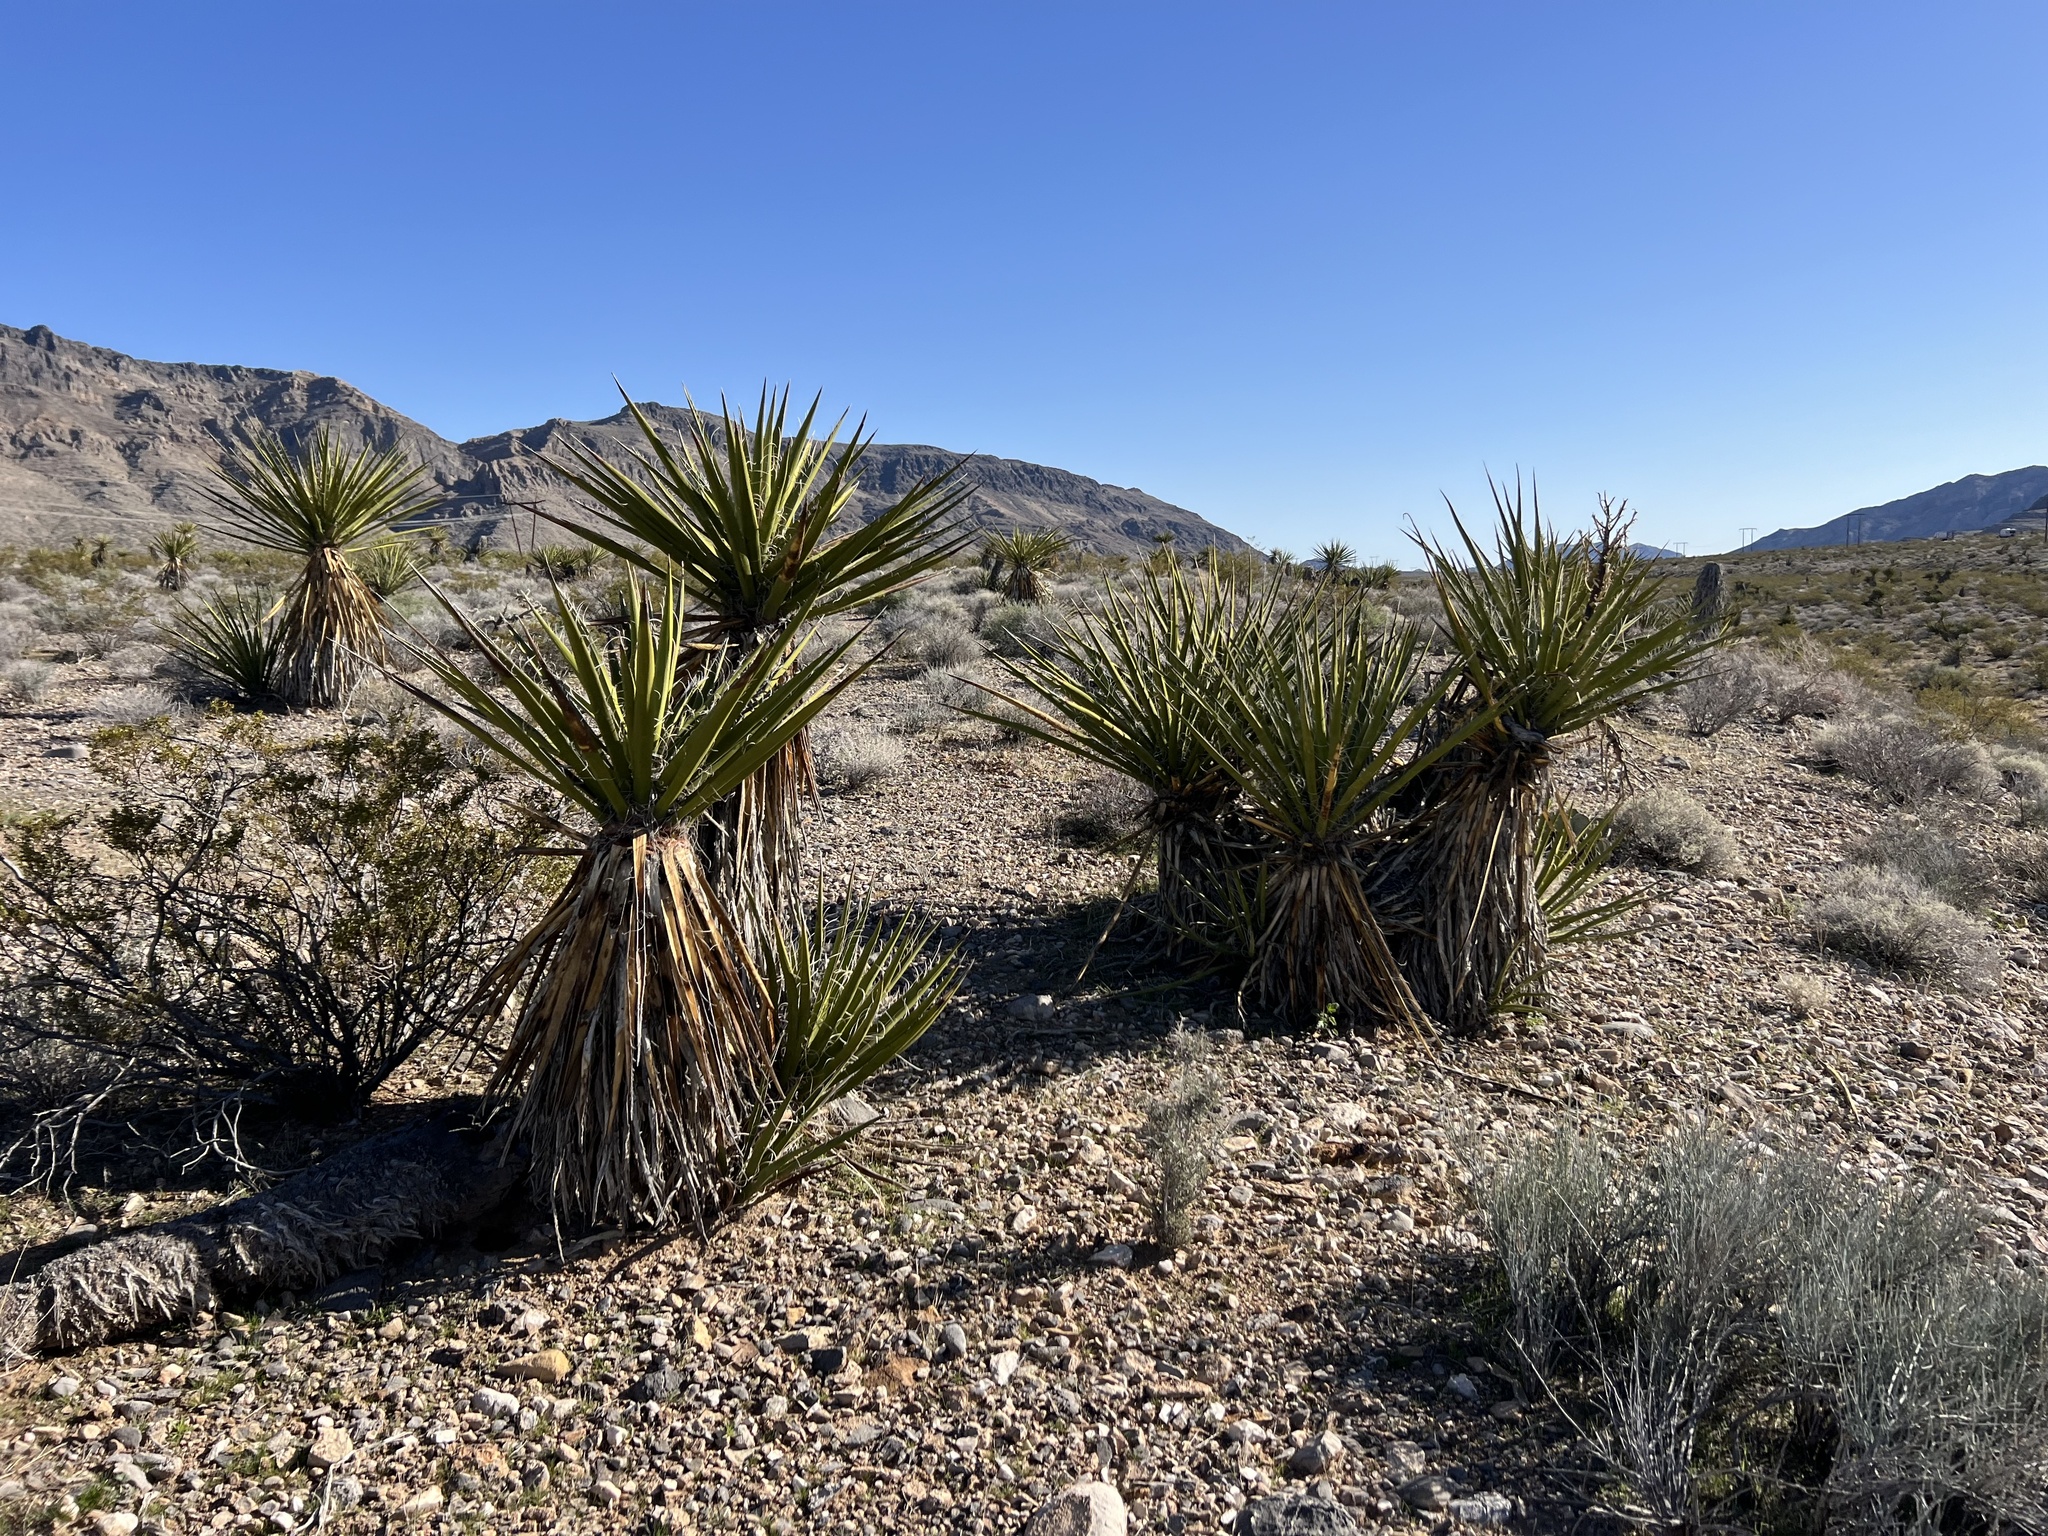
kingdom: Plantae
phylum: Tracheophyta
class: Liliopsida
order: Asparagales
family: Asparagaceae
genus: Yucca
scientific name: Yucca schidigera
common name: Mojave yucca
